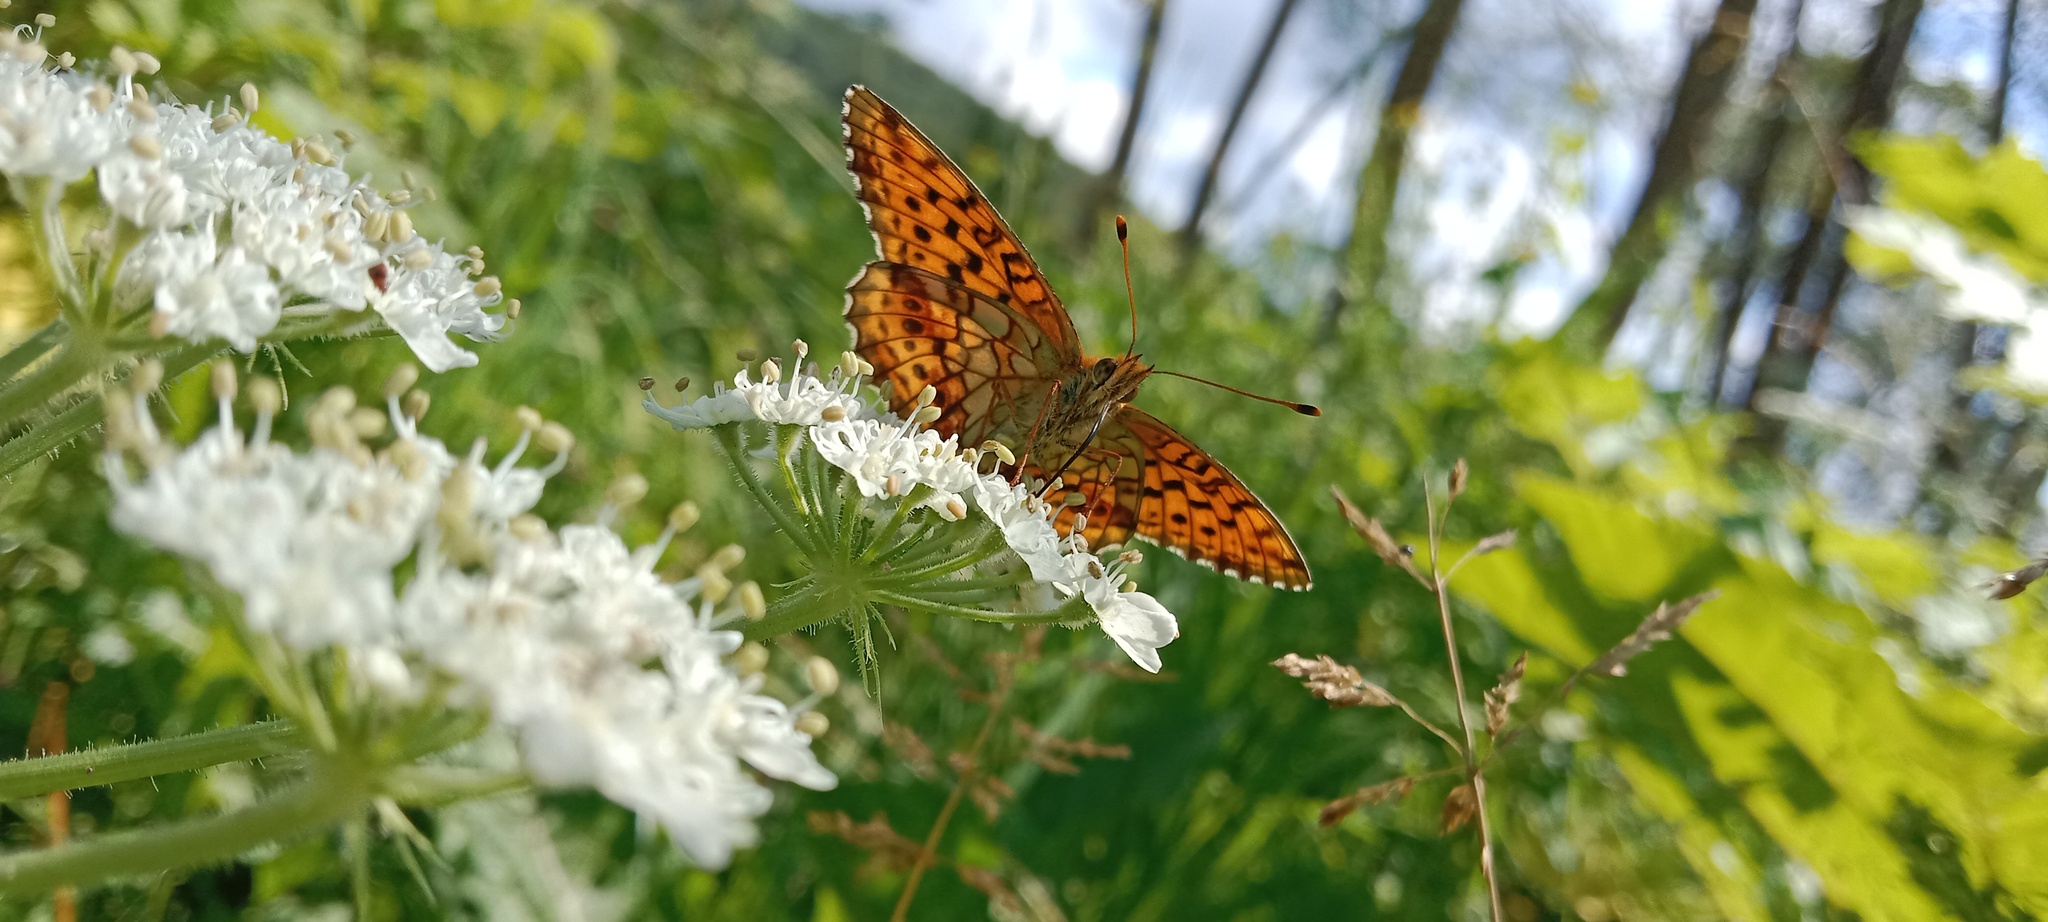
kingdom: Animalia
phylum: Arthropoda
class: Insecta
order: Lepidoptera
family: Nymphalidae
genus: Brenthis
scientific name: Brenthis ino
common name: Lesser marbled fritillary
